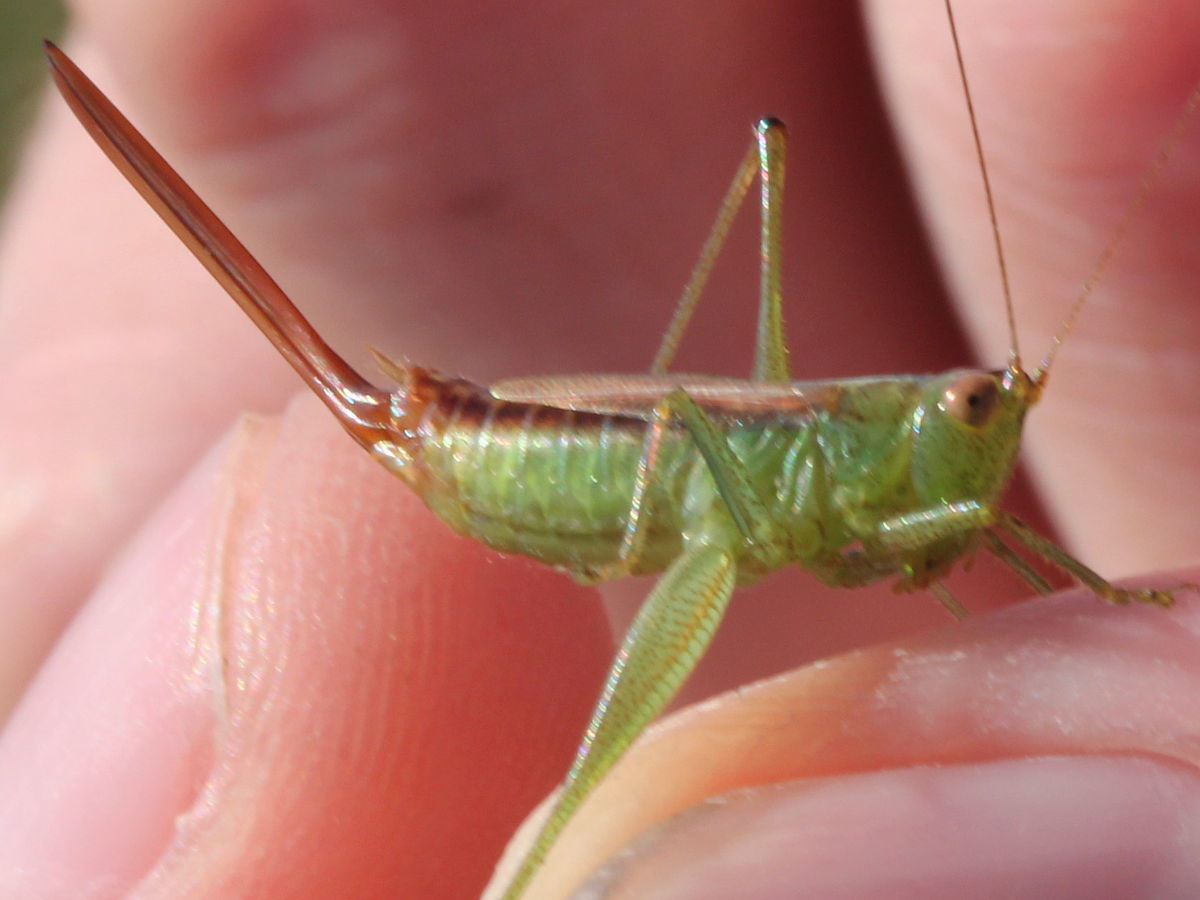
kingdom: Animalia
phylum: Arthropoda
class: Insecta
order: Orthoptera
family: Tettigoniidae
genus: Conocephalus
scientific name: Conocephalus brevipennis
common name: Short-winged meadow katydid
